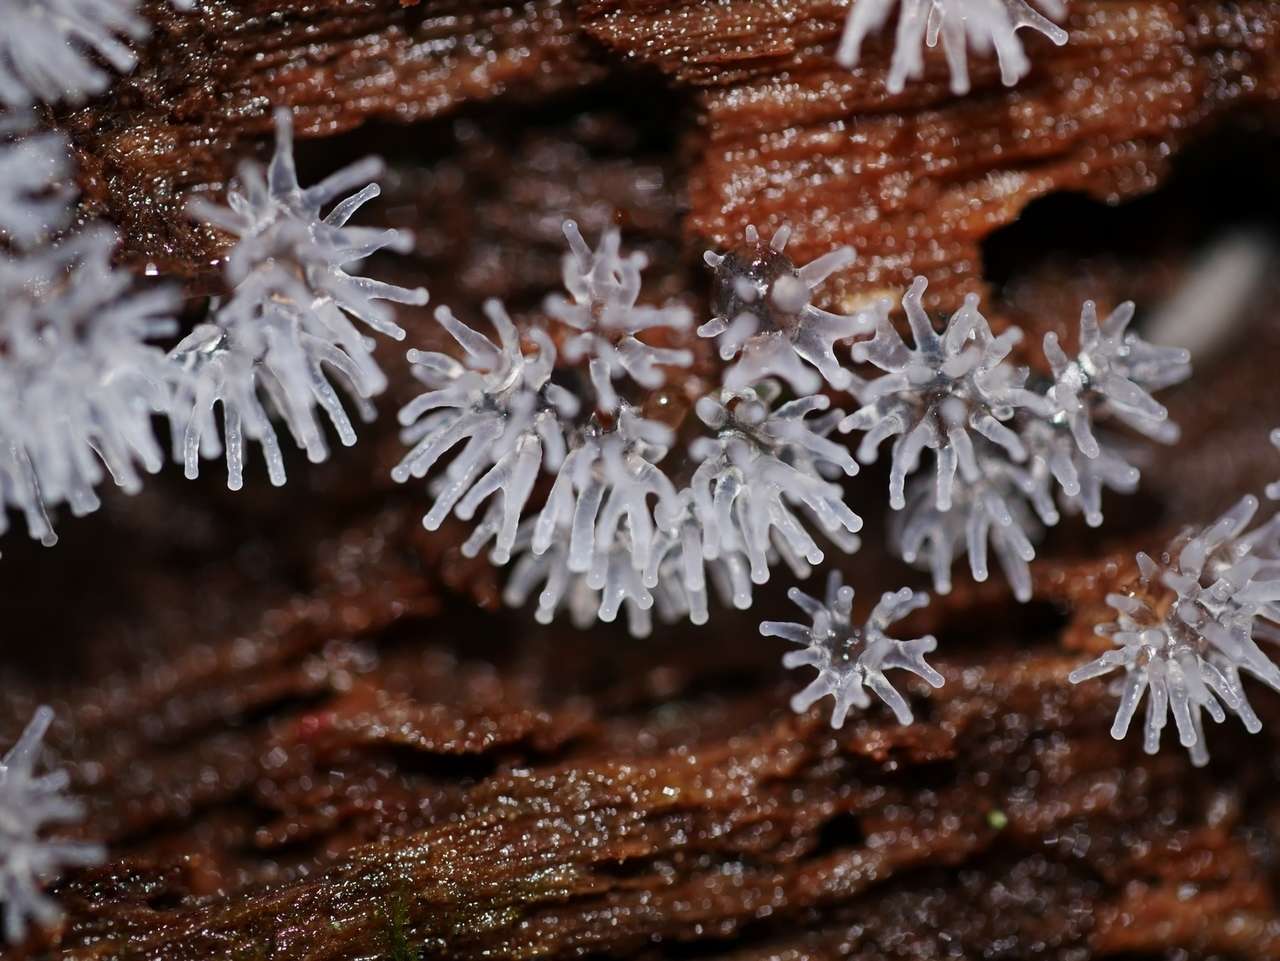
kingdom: Protozoa
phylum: Mycetozoa
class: Protosteliomycetes
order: Ceratiomyxales
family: Ceratiomyxaceae
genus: Ceratiomyxa
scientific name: Ceratiomyxa fruticulosa
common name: Honeycomb coral slime mold
